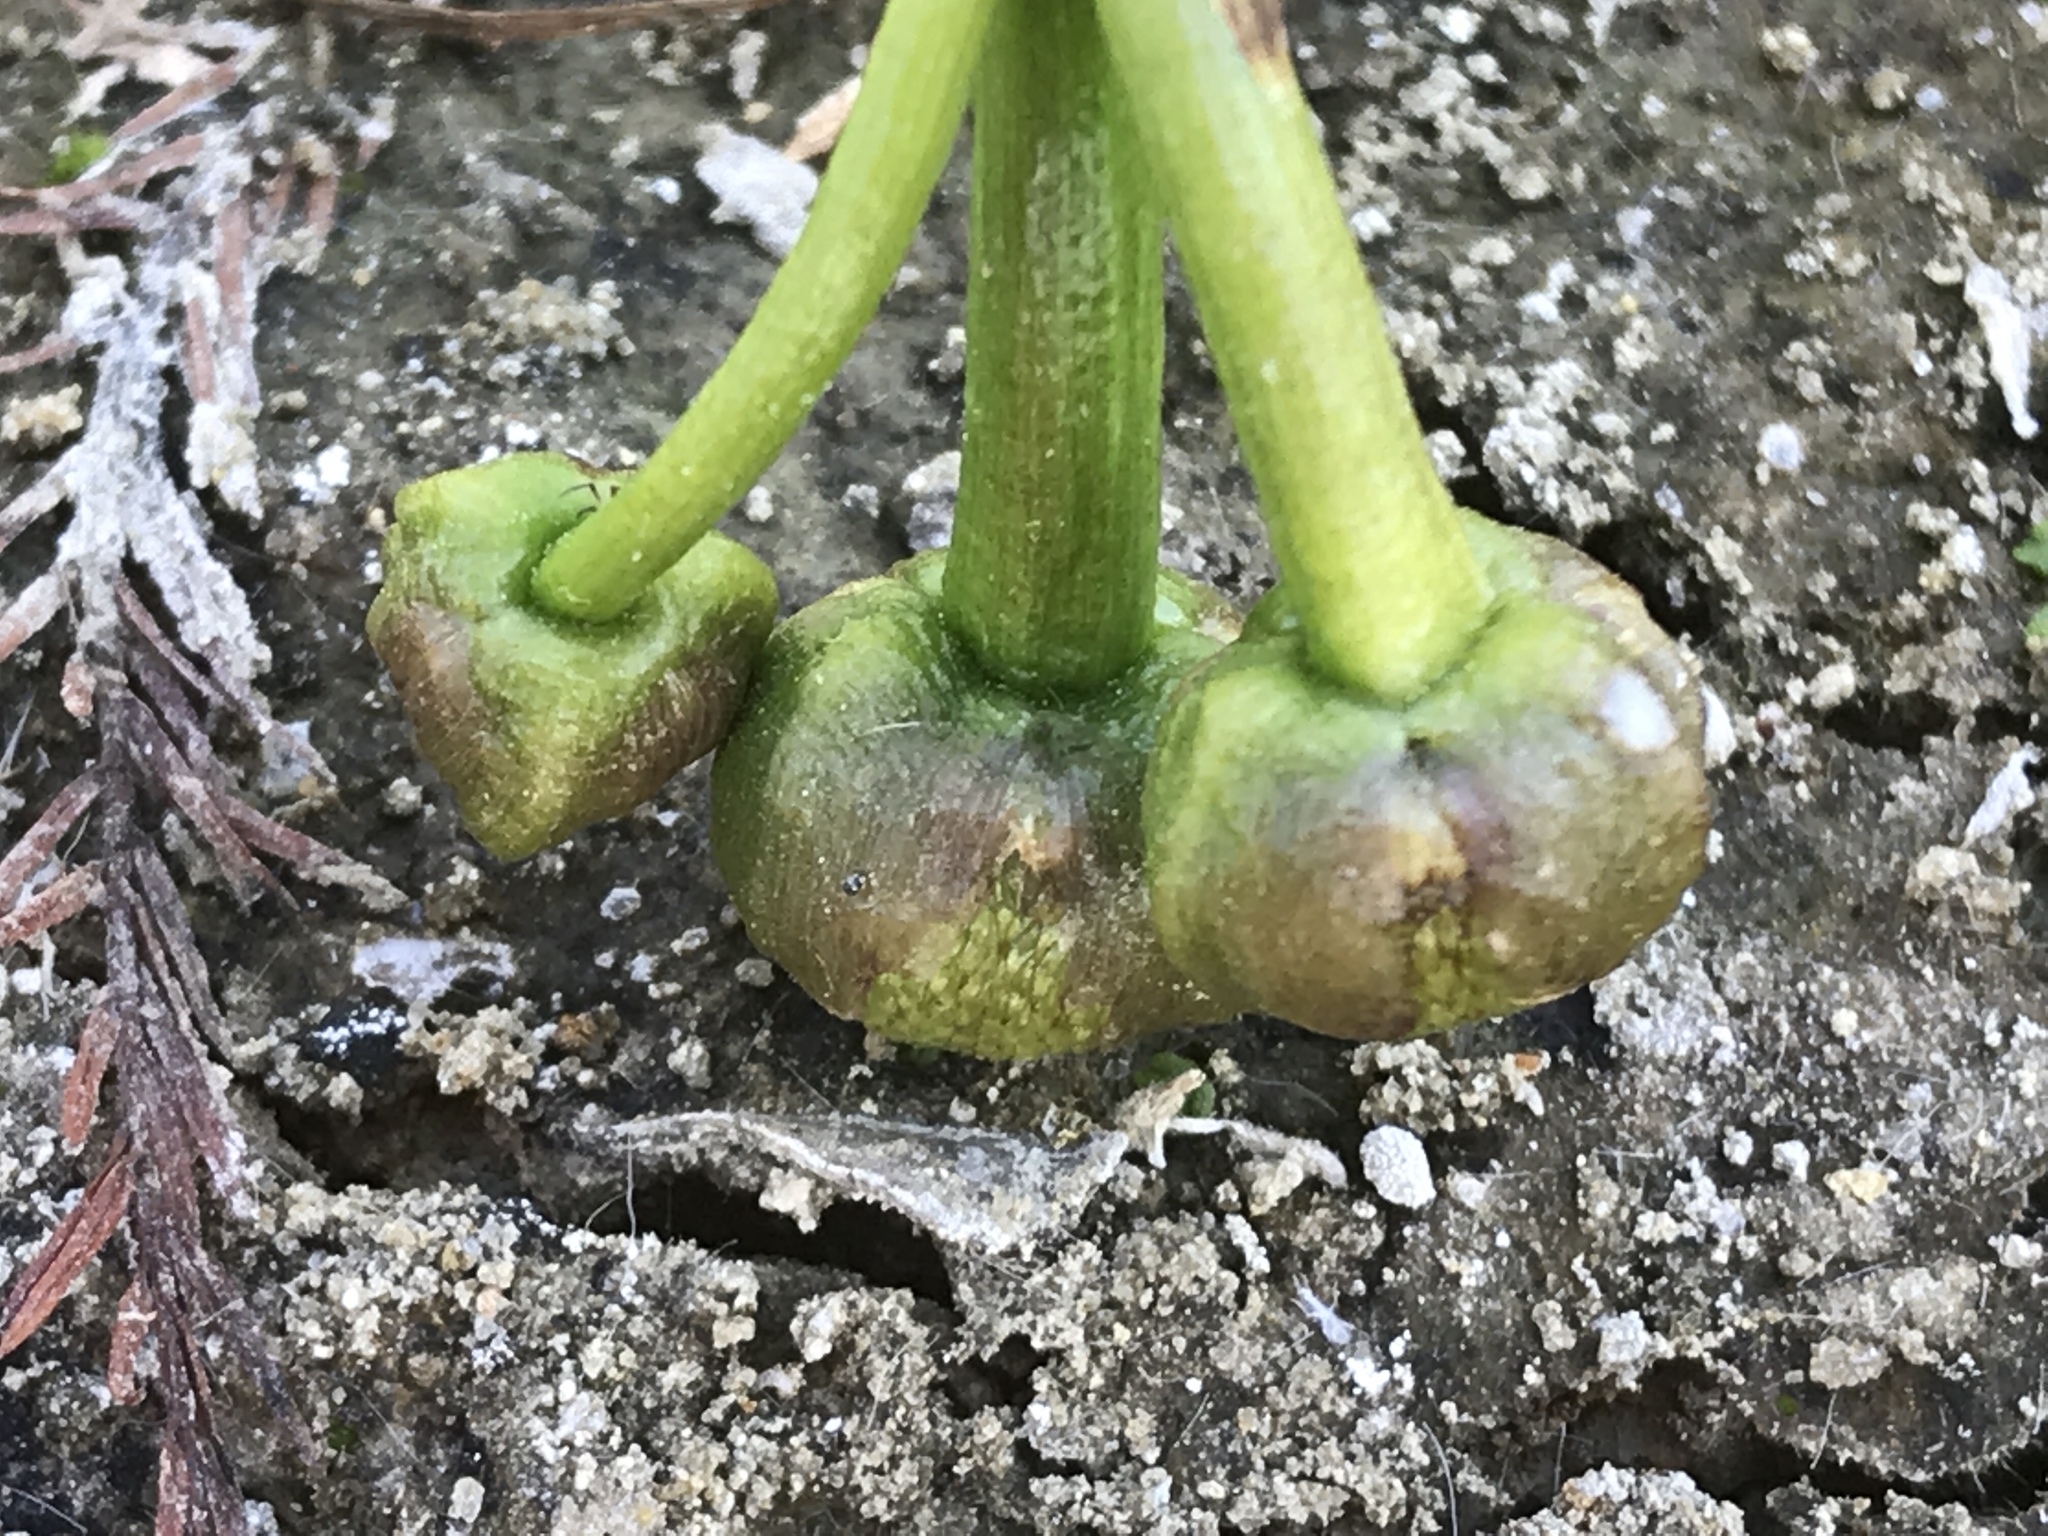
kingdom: Plantae
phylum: Tracheophyta
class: Liliopsida
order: Alismatales
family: Alismataceae
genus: Sagittaria
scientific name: Sagittaria calycina
